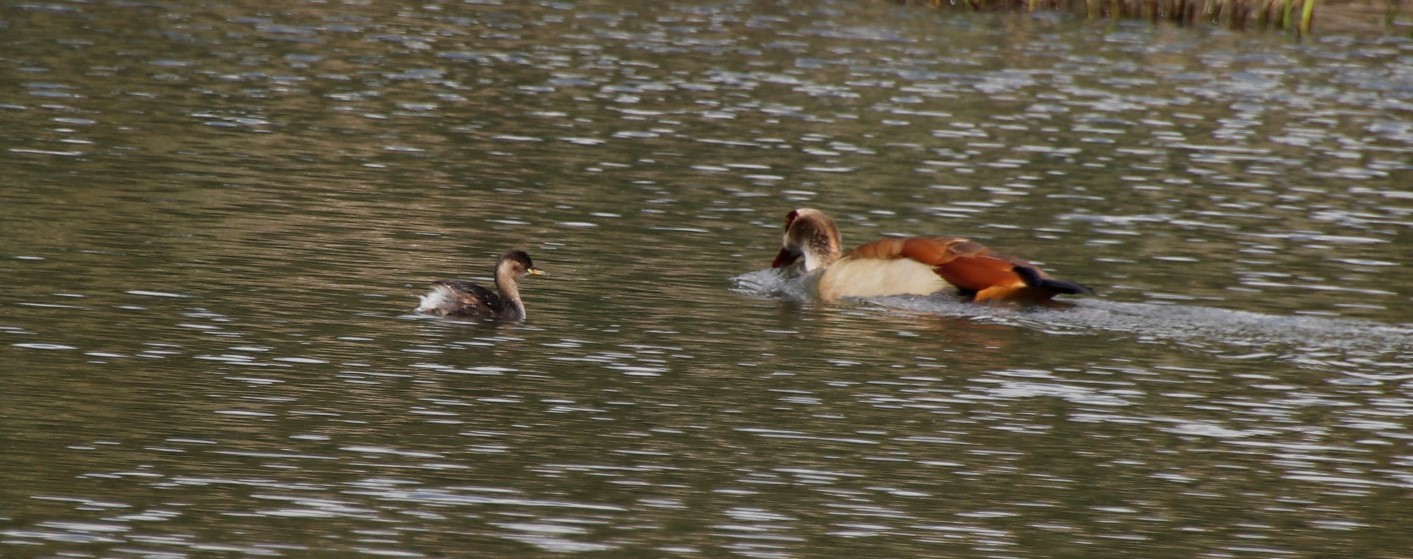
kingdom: Animalia
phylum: Chordata
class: Aves
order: Podicipediformes
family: Podicipedidae
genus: Tachybaptus
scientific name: Tachybaptus ruficollis
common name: Little grebe
